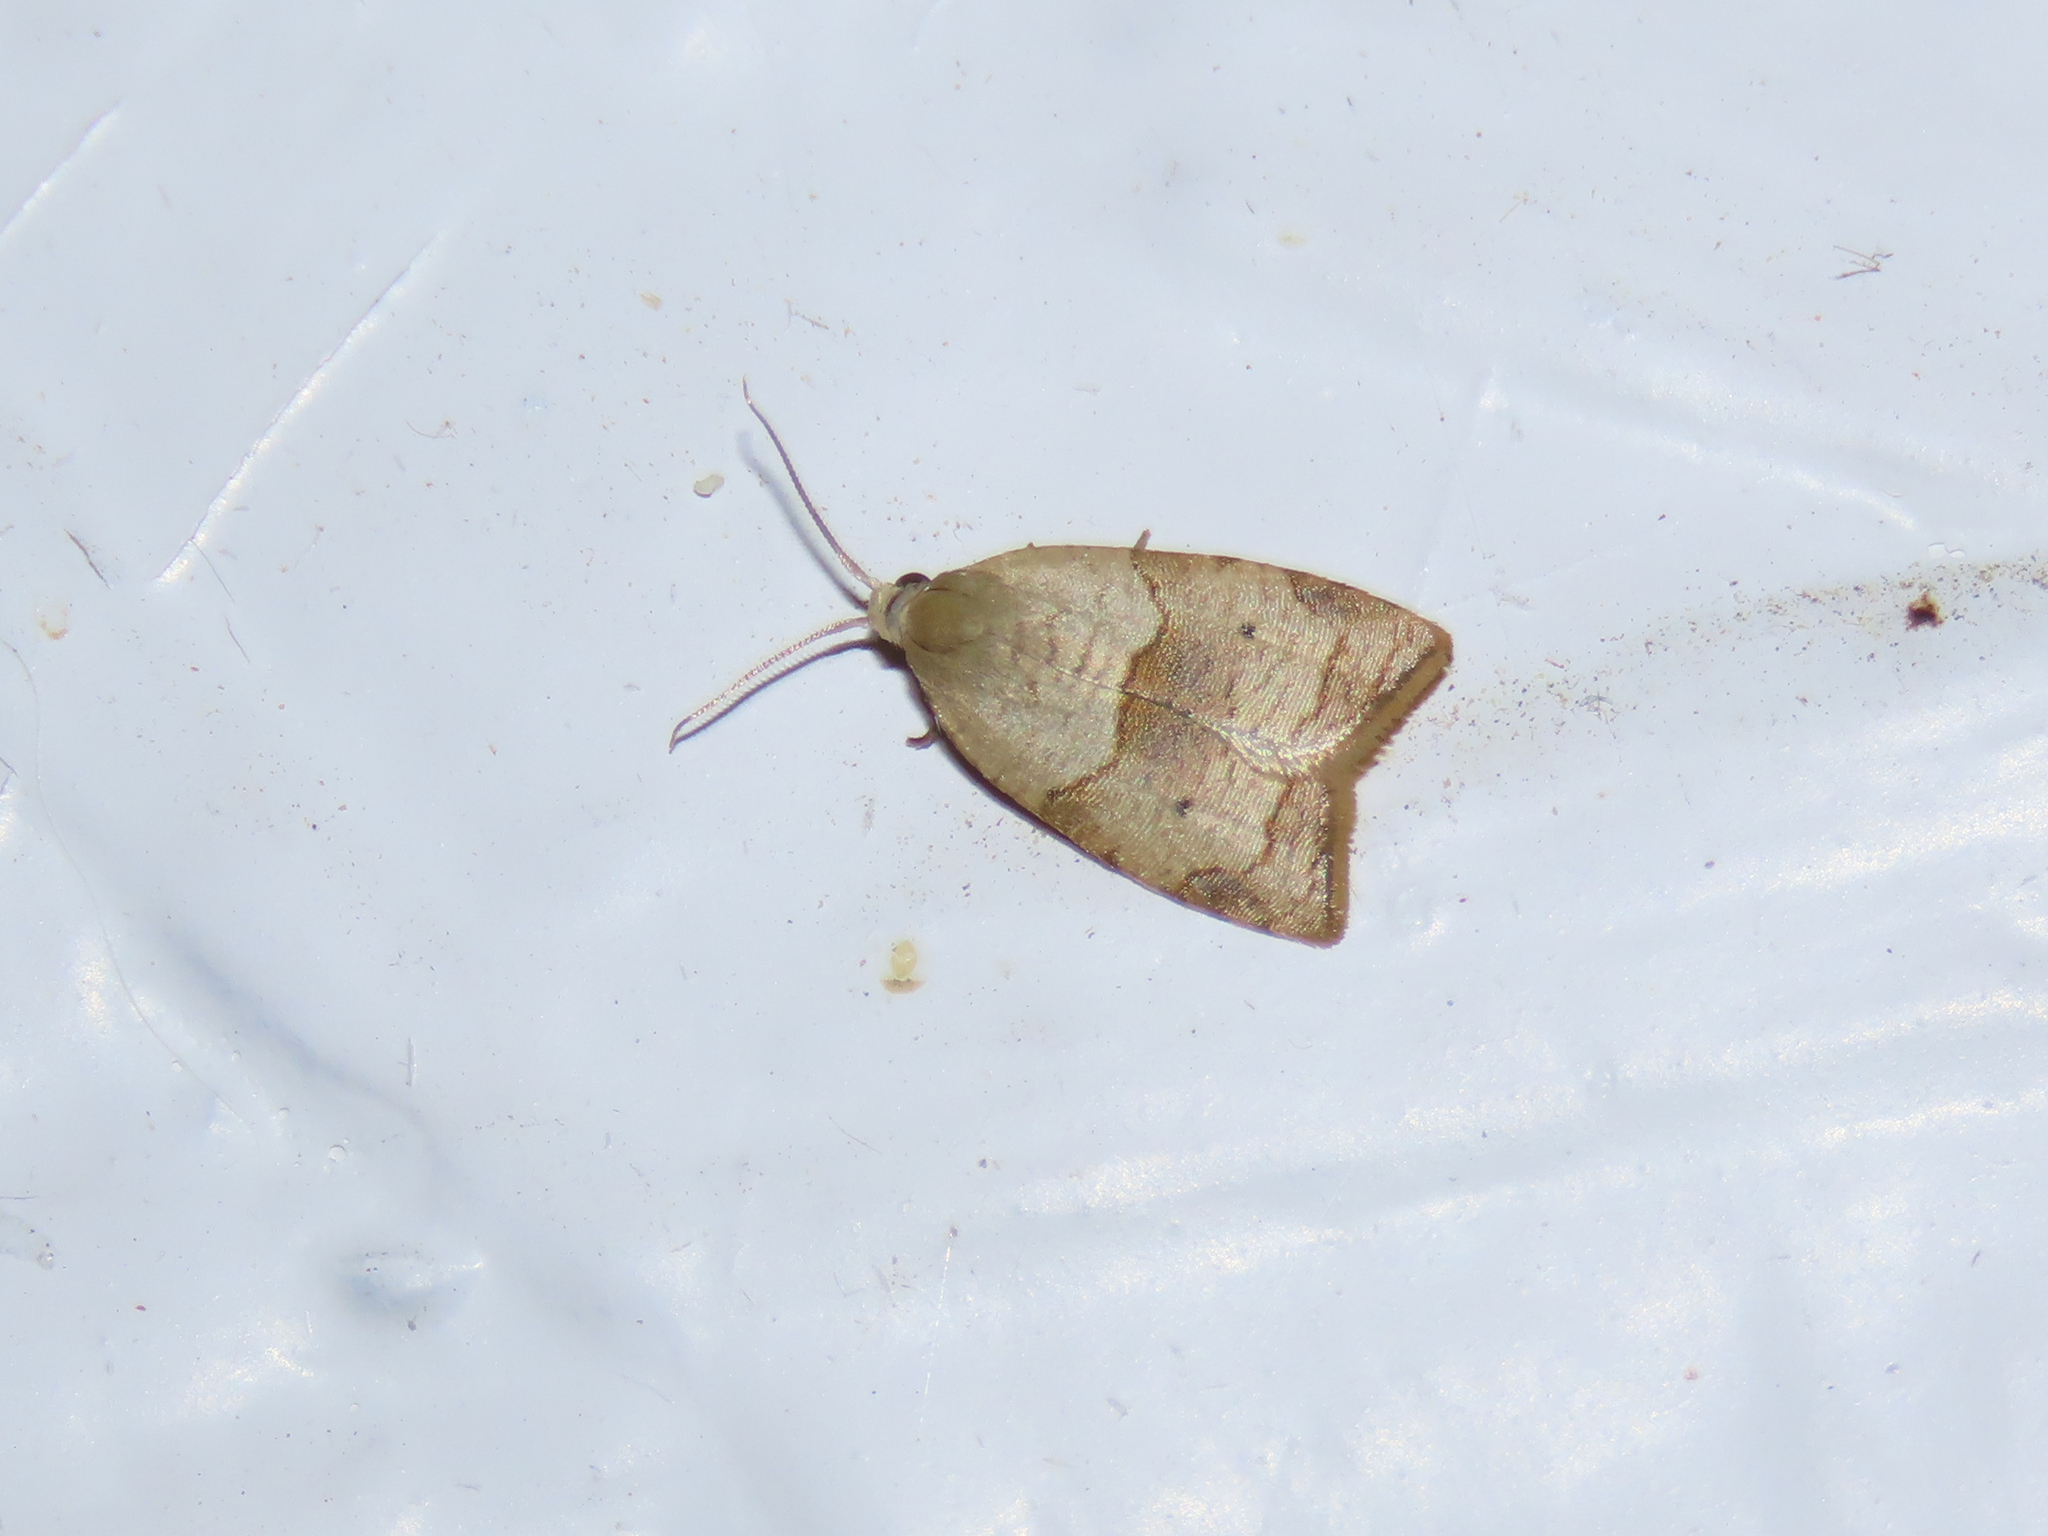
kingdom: Animalia
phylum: Arthropoda
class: Insecta
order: Lepidoptera
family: Tortricidae
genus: Coelostathma
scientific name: Coelostathma discopunctana
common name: Batman moth
